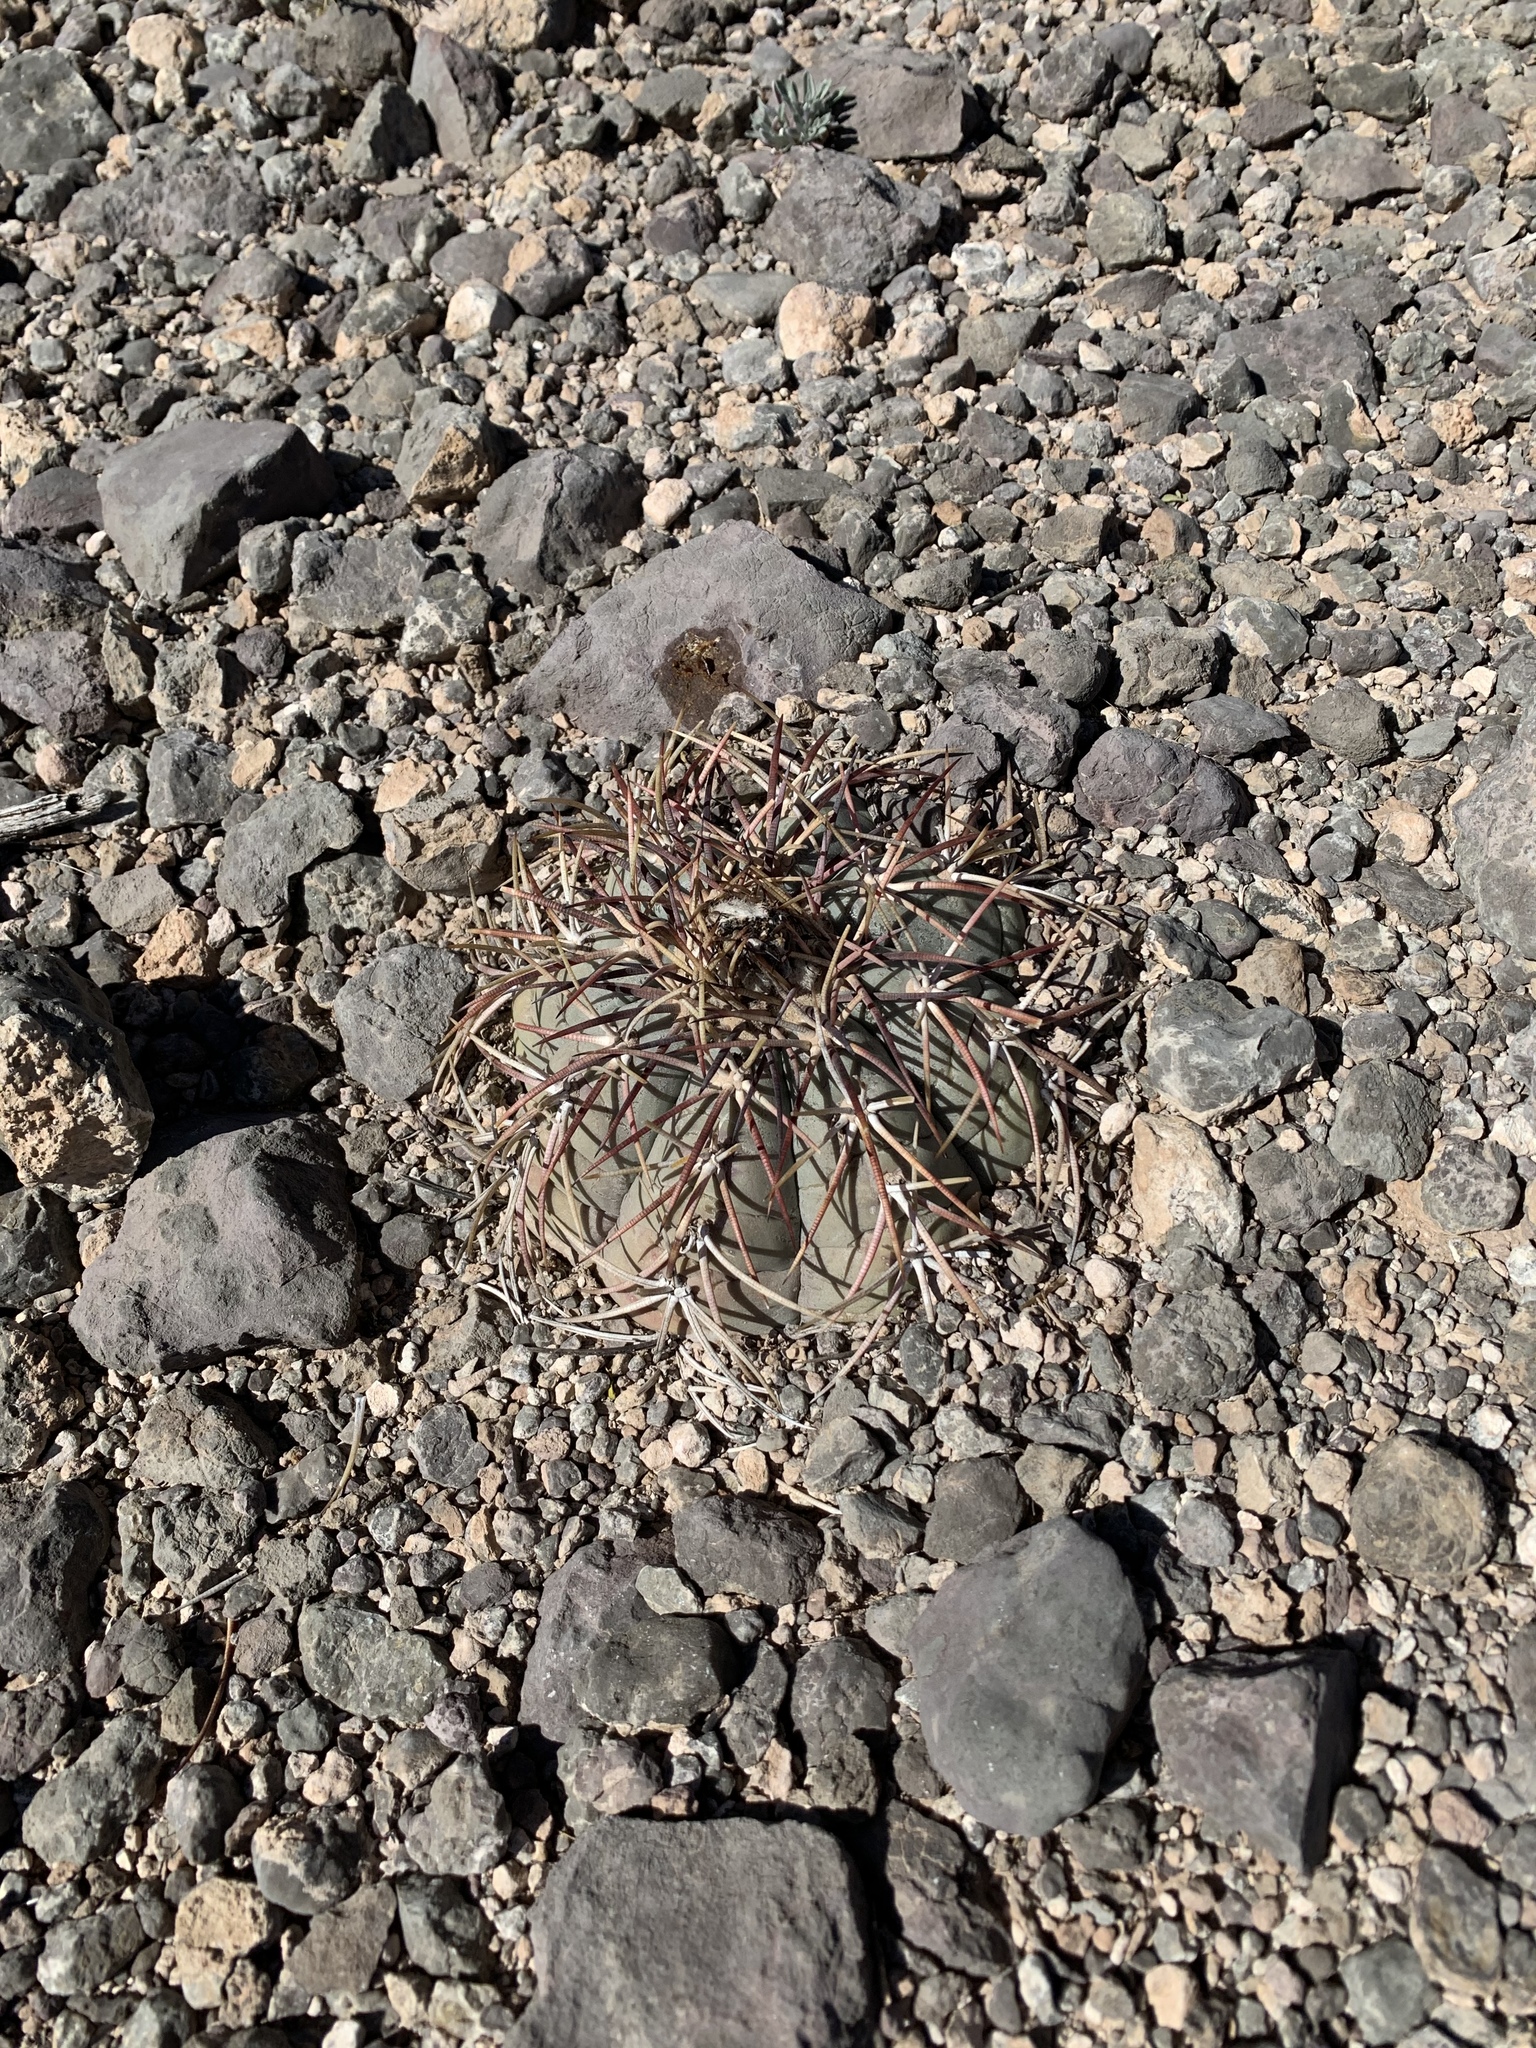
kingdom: Plantae
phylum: Tracheophyta
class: Magnoliopsida
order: Caryophyllales
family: Cactaceae
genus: Echinocactus
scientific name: Echinocactus horizonthalonius
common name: Devilshead
